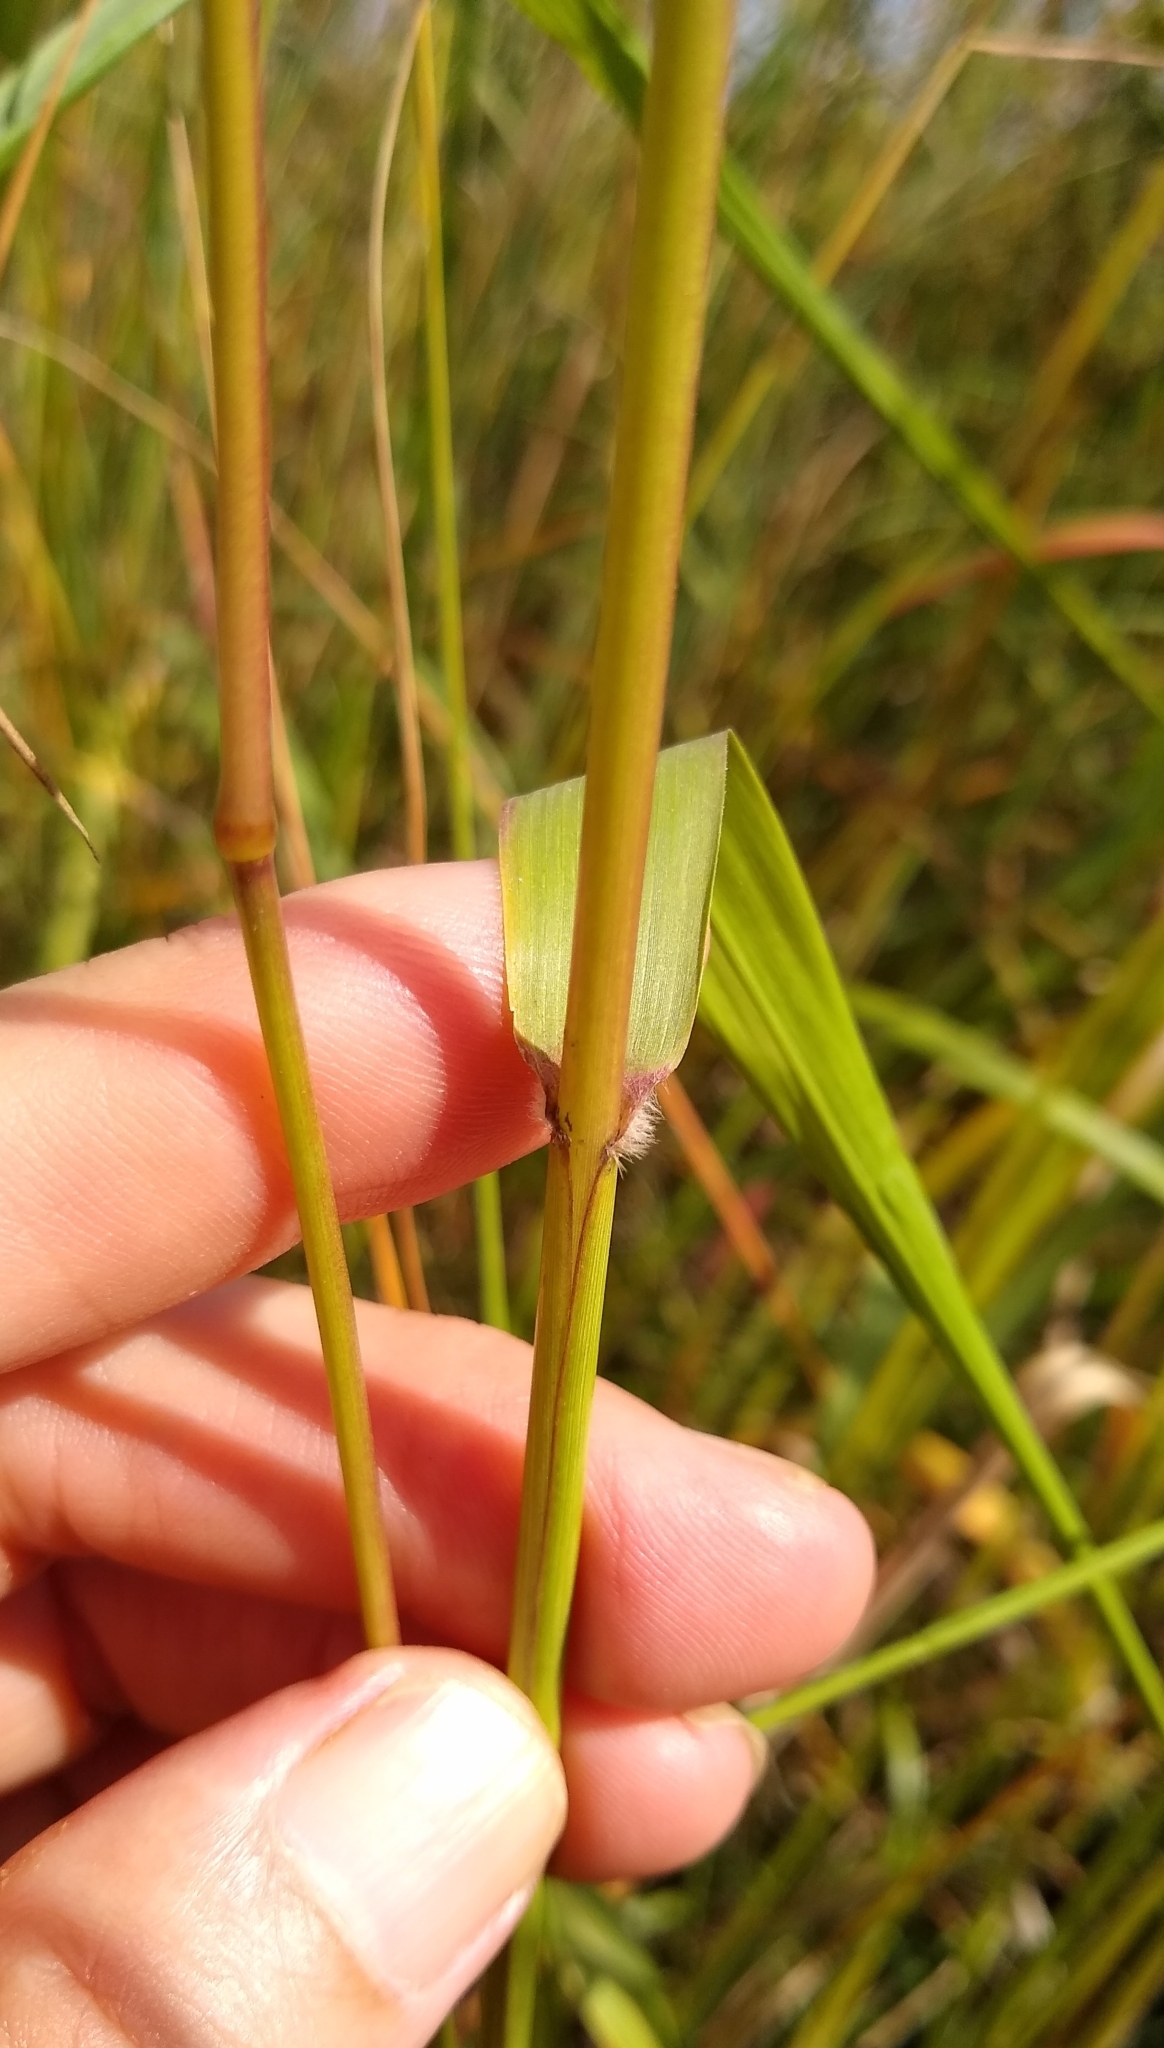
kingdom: Plantae
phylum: Tracheophyta
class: Liliopsida
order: Poales
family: Poaceae
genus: Tridens
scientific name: Tridens flavus
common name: Purpletop
